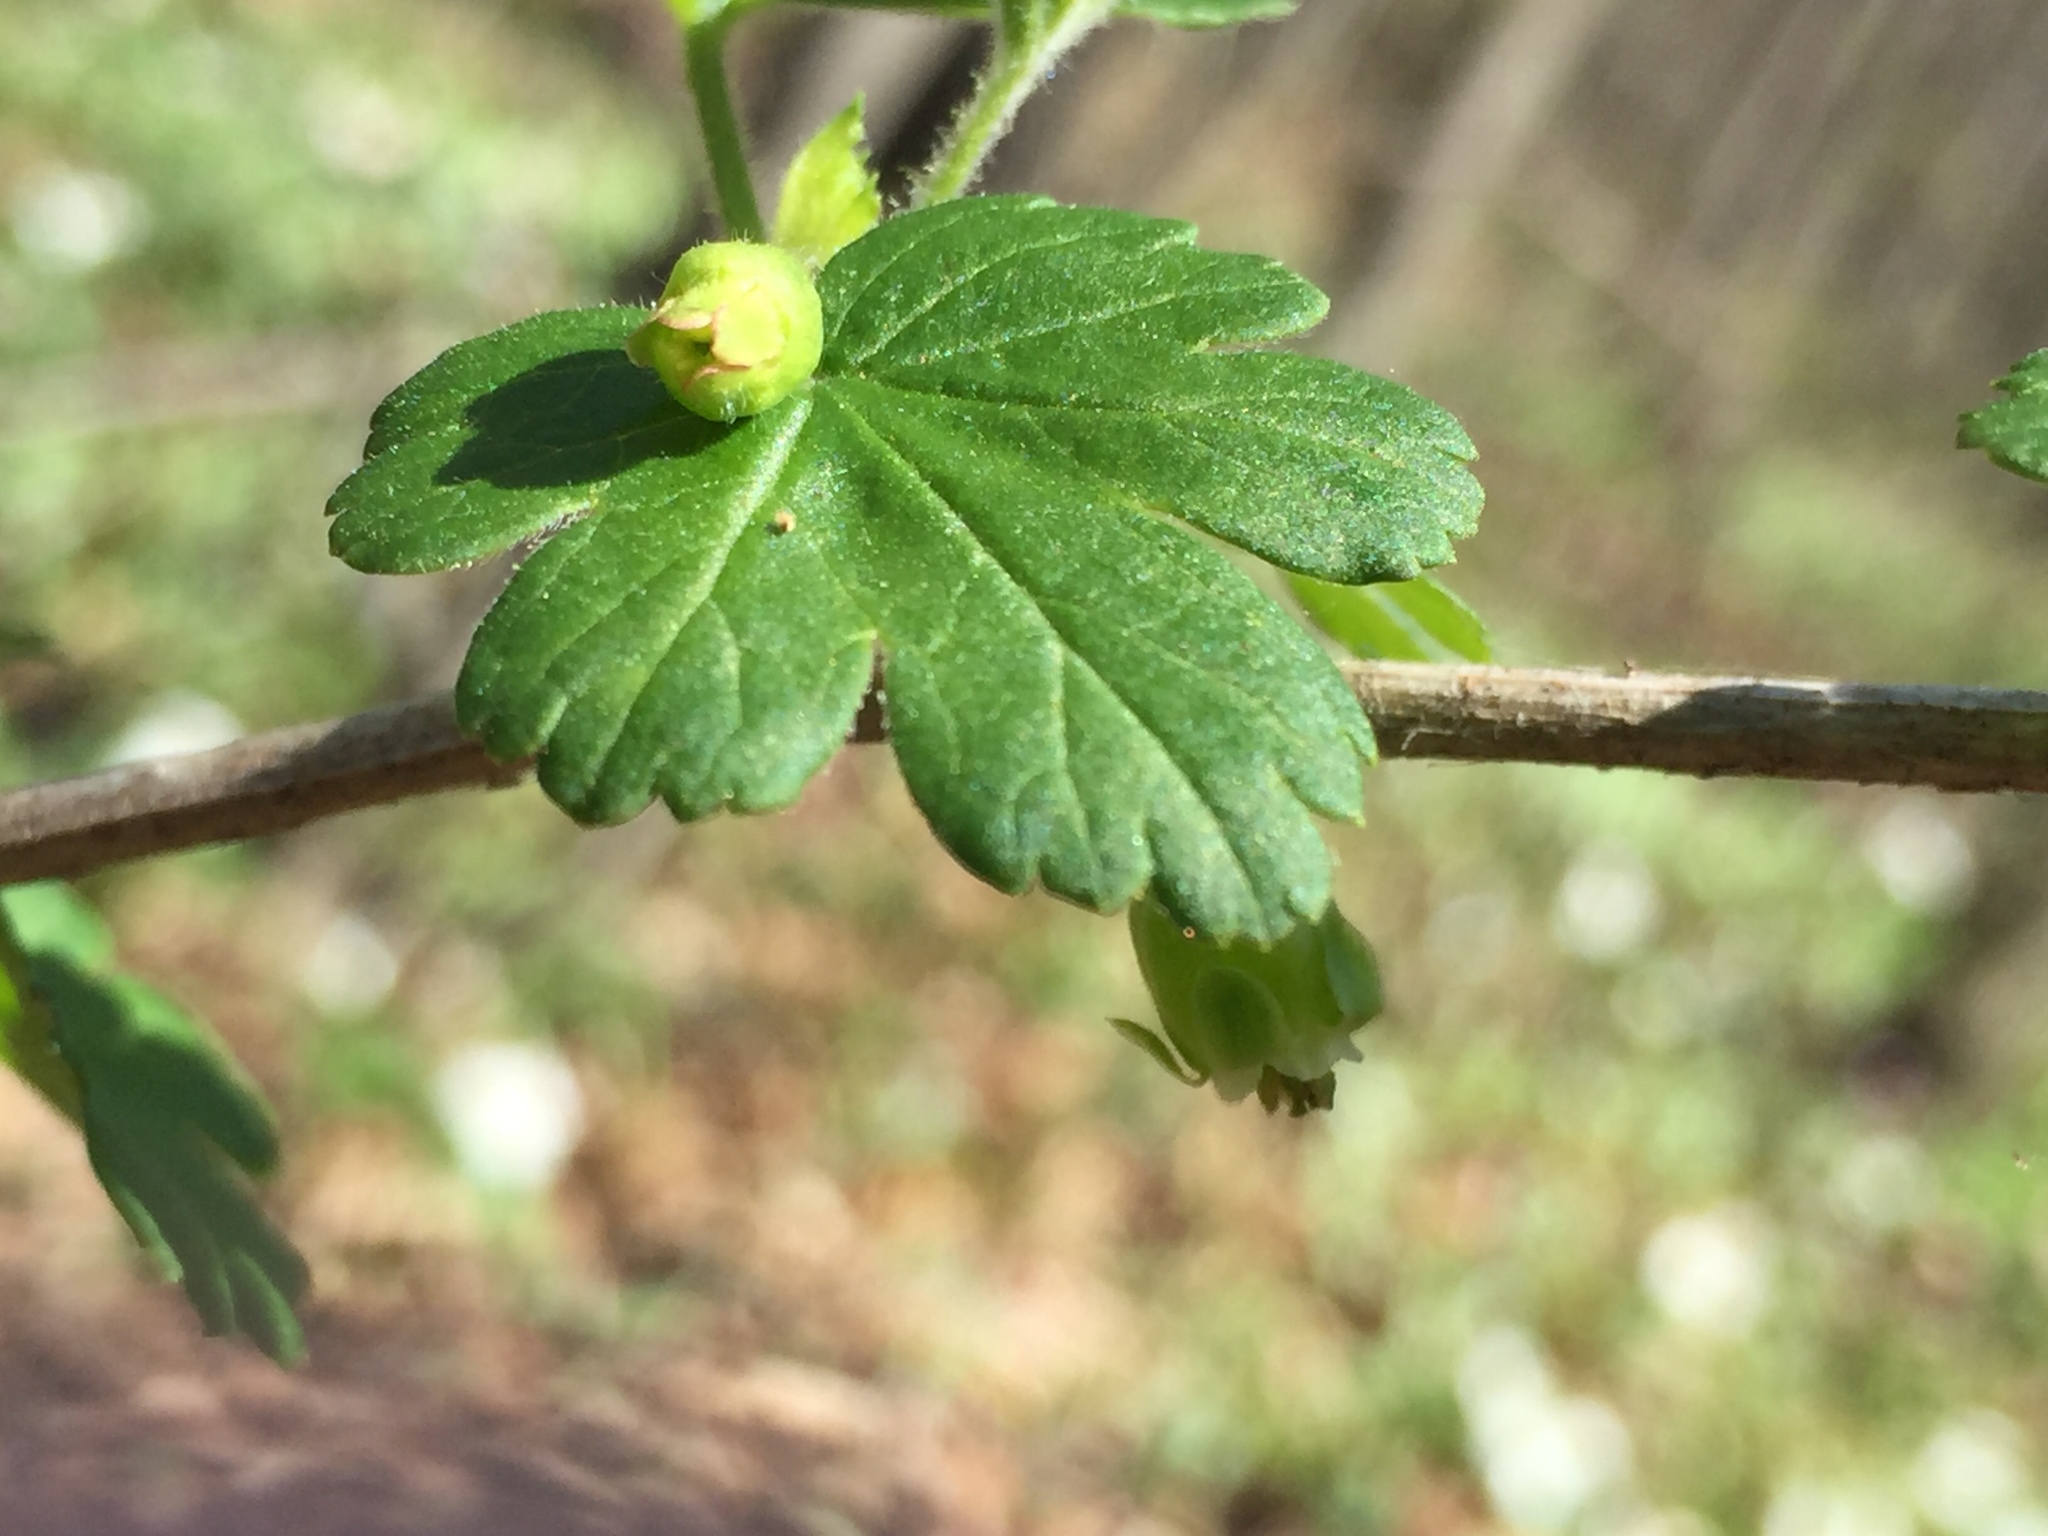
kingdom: Plantae
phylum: Tracheophyta
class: Magnoliopsida
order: Saxifragales
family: Grossulariaceae
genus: Ribes
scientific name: Ribes cynosbati
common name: American gooseberry
